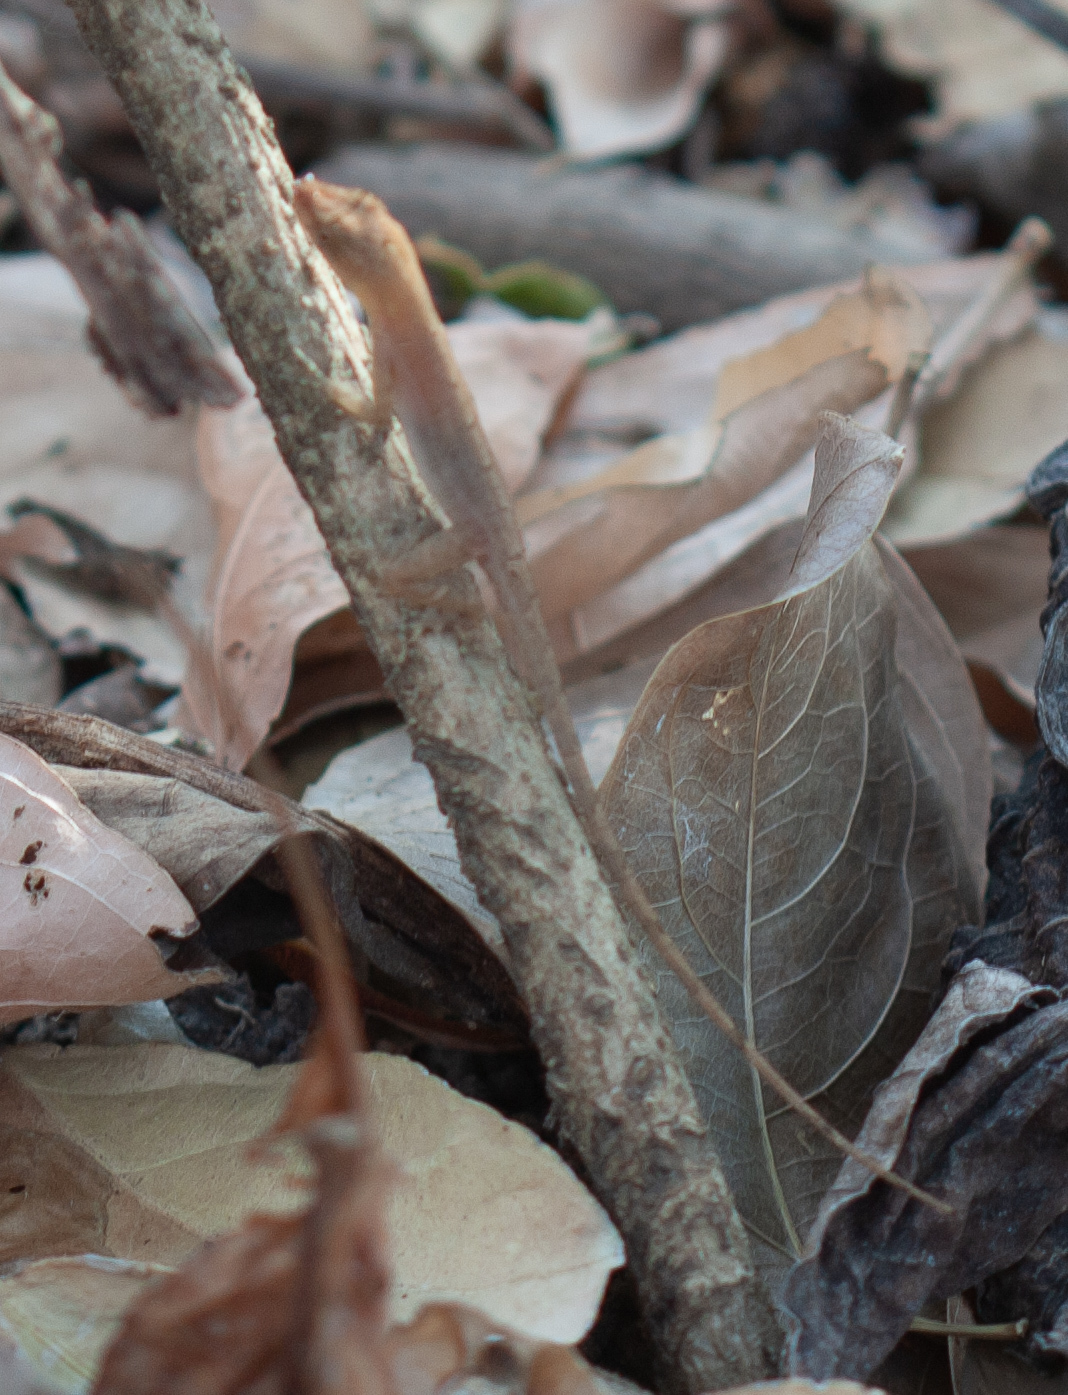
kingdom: Animalia
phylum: Chordata
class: Squamata
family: Dactyloidae
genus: Anolis
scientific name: Anolis cupreus
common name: Copper anole
